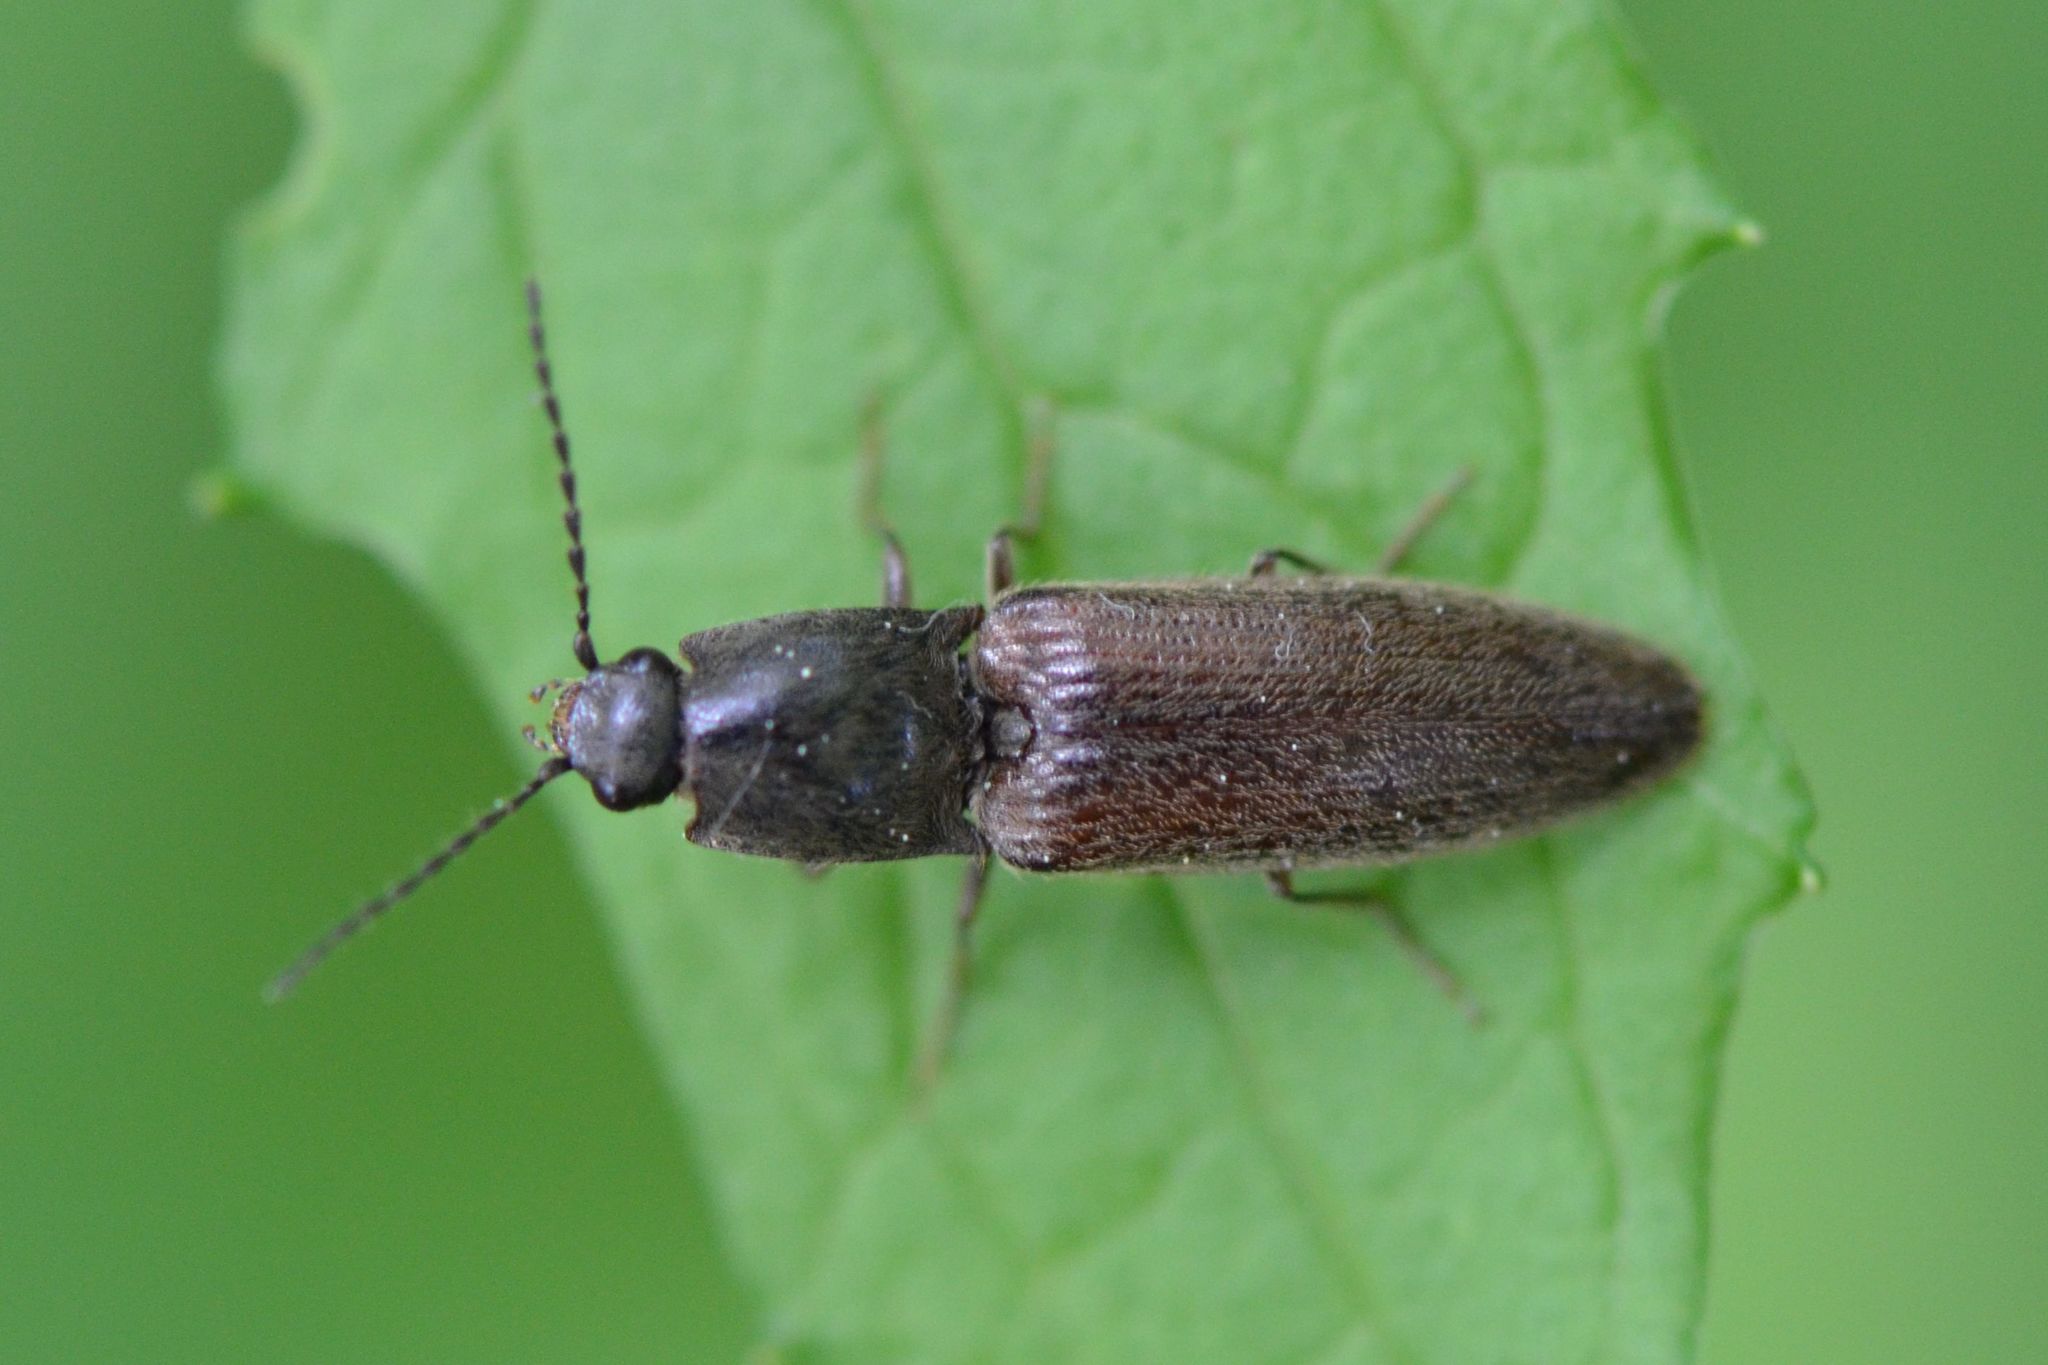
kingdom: Animalia
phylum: Arthropoda
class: Insecta
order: Coleoptera
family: Elateridae
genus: Athous
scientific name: Athous haemorrhoidalis
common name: Red-brown click beetle
